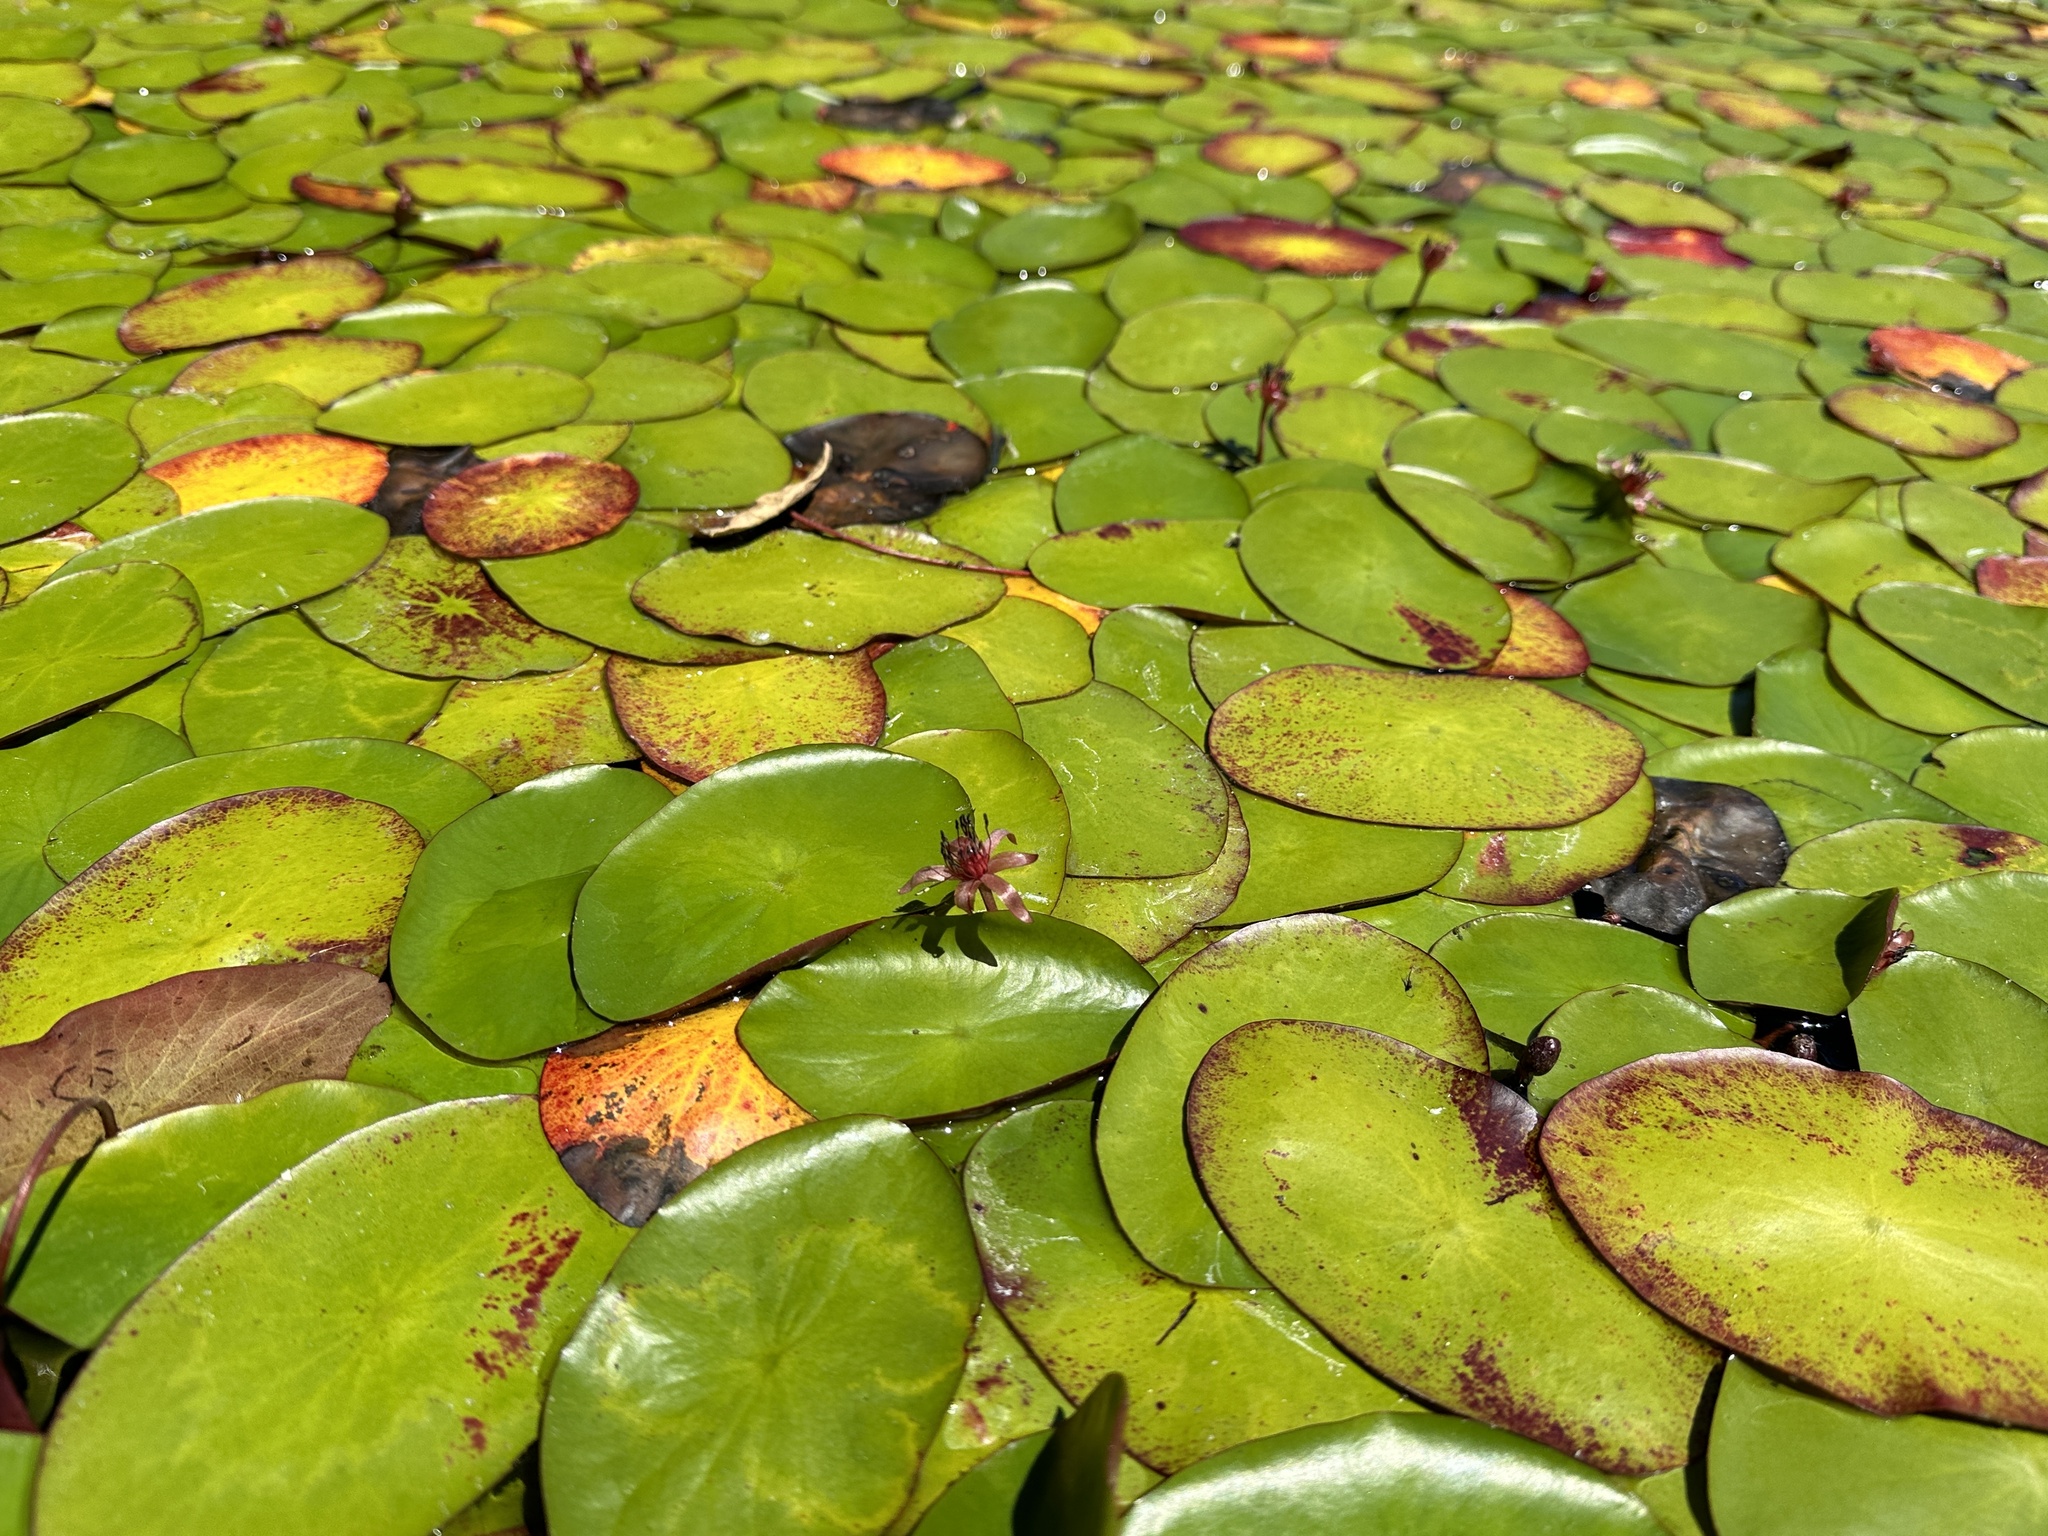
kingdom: Plantae
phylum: Tracheophyta
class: Magnoliopsida
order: Nymphaeales
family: Cabombaceae
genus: Brasenia
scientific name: Brasenia schreberi
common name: Water-shield
